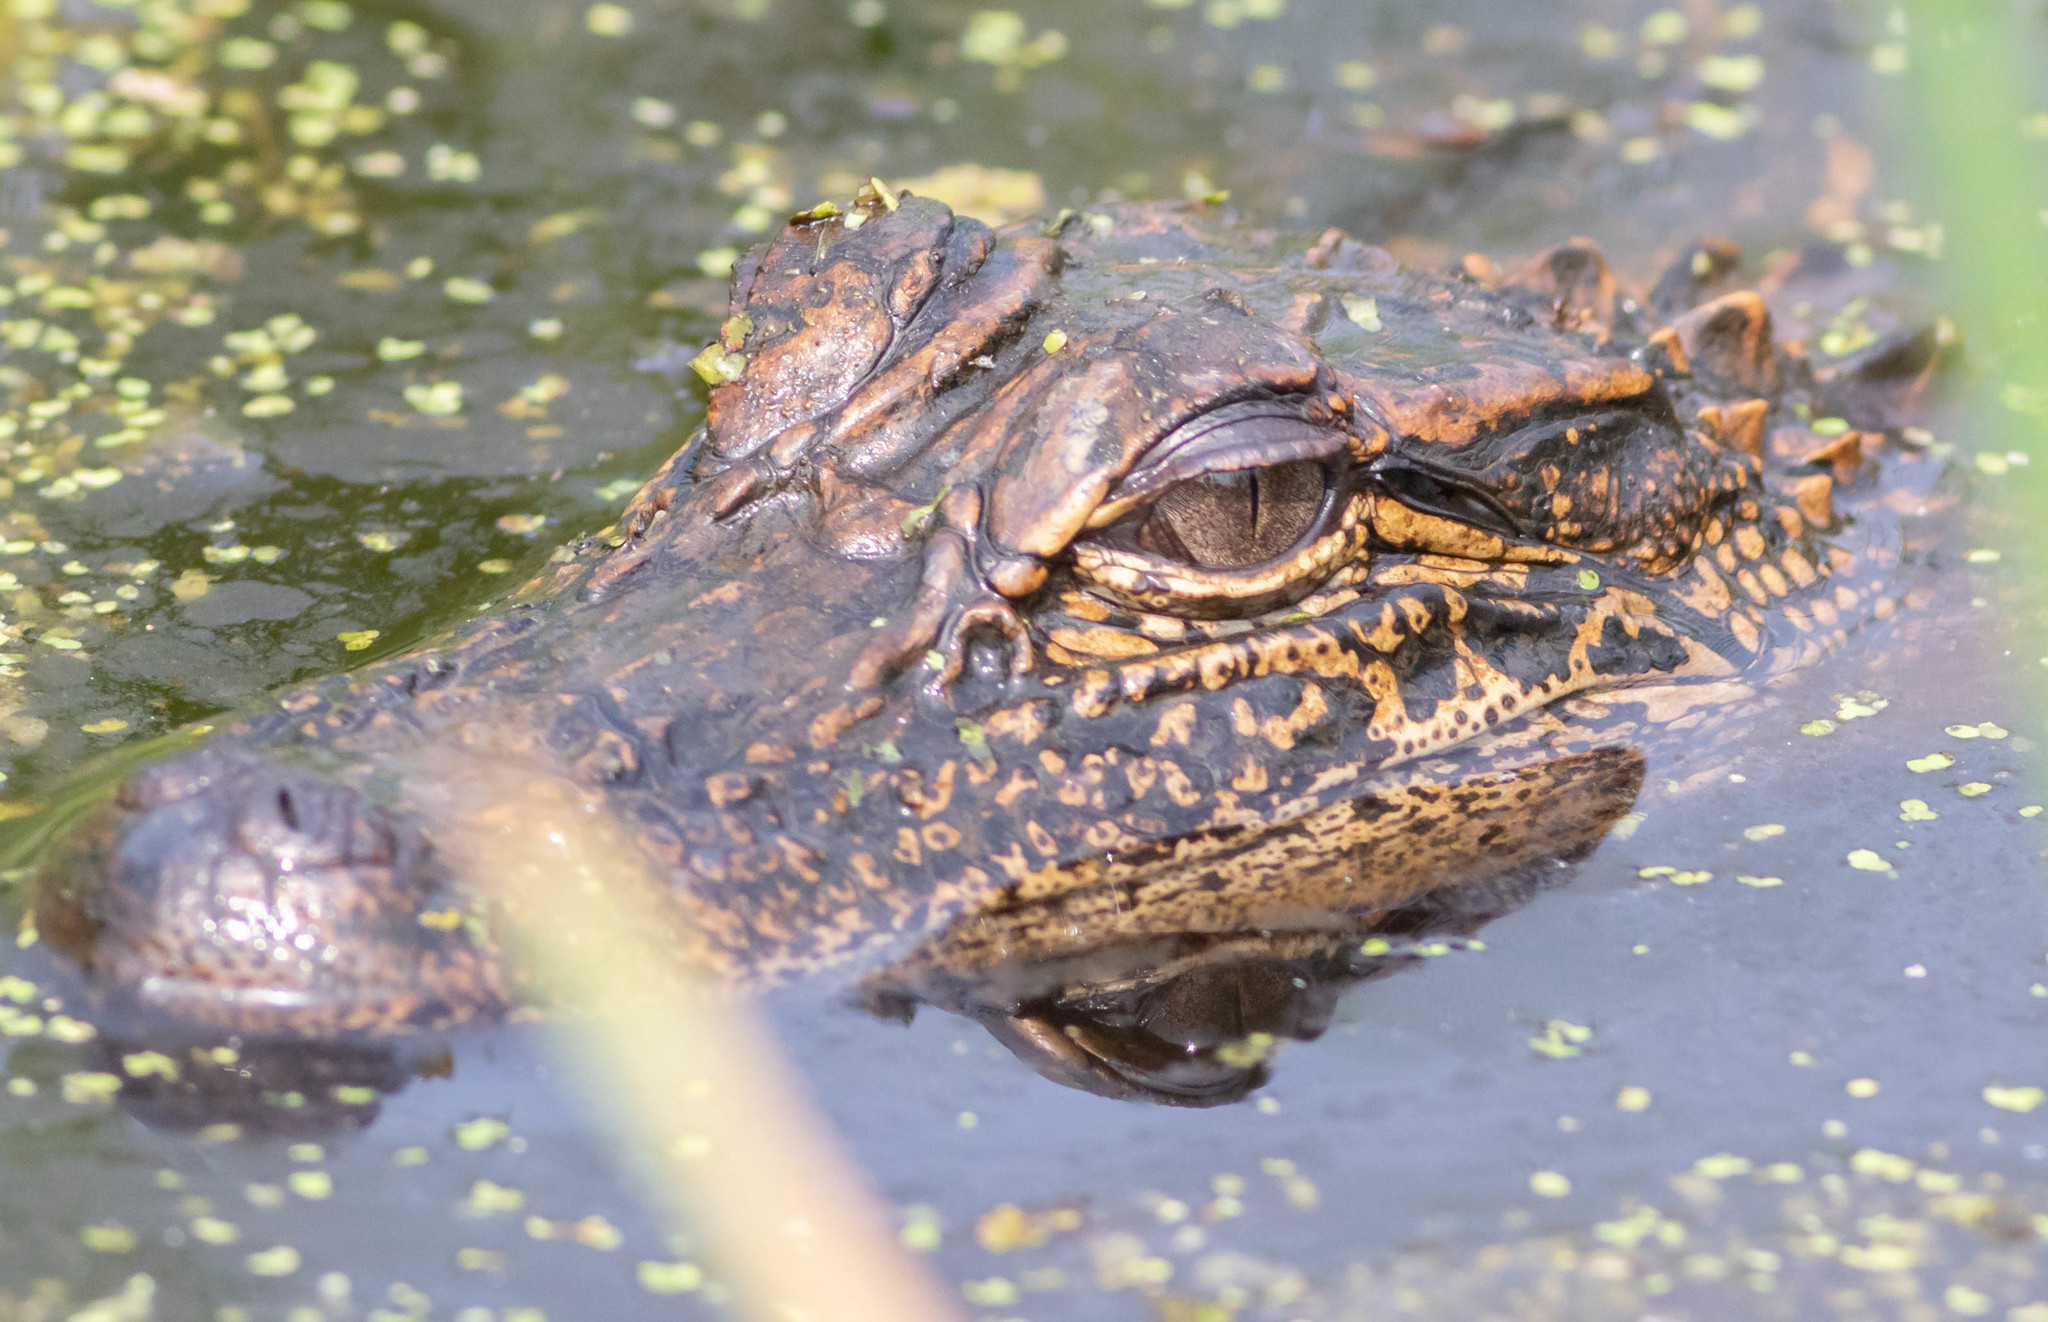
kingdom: Animalia
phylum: Chordata
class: Crocodylia
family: Alligatoridae
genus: Alligator
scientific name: Alligator mississippiensis
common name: American alligator
